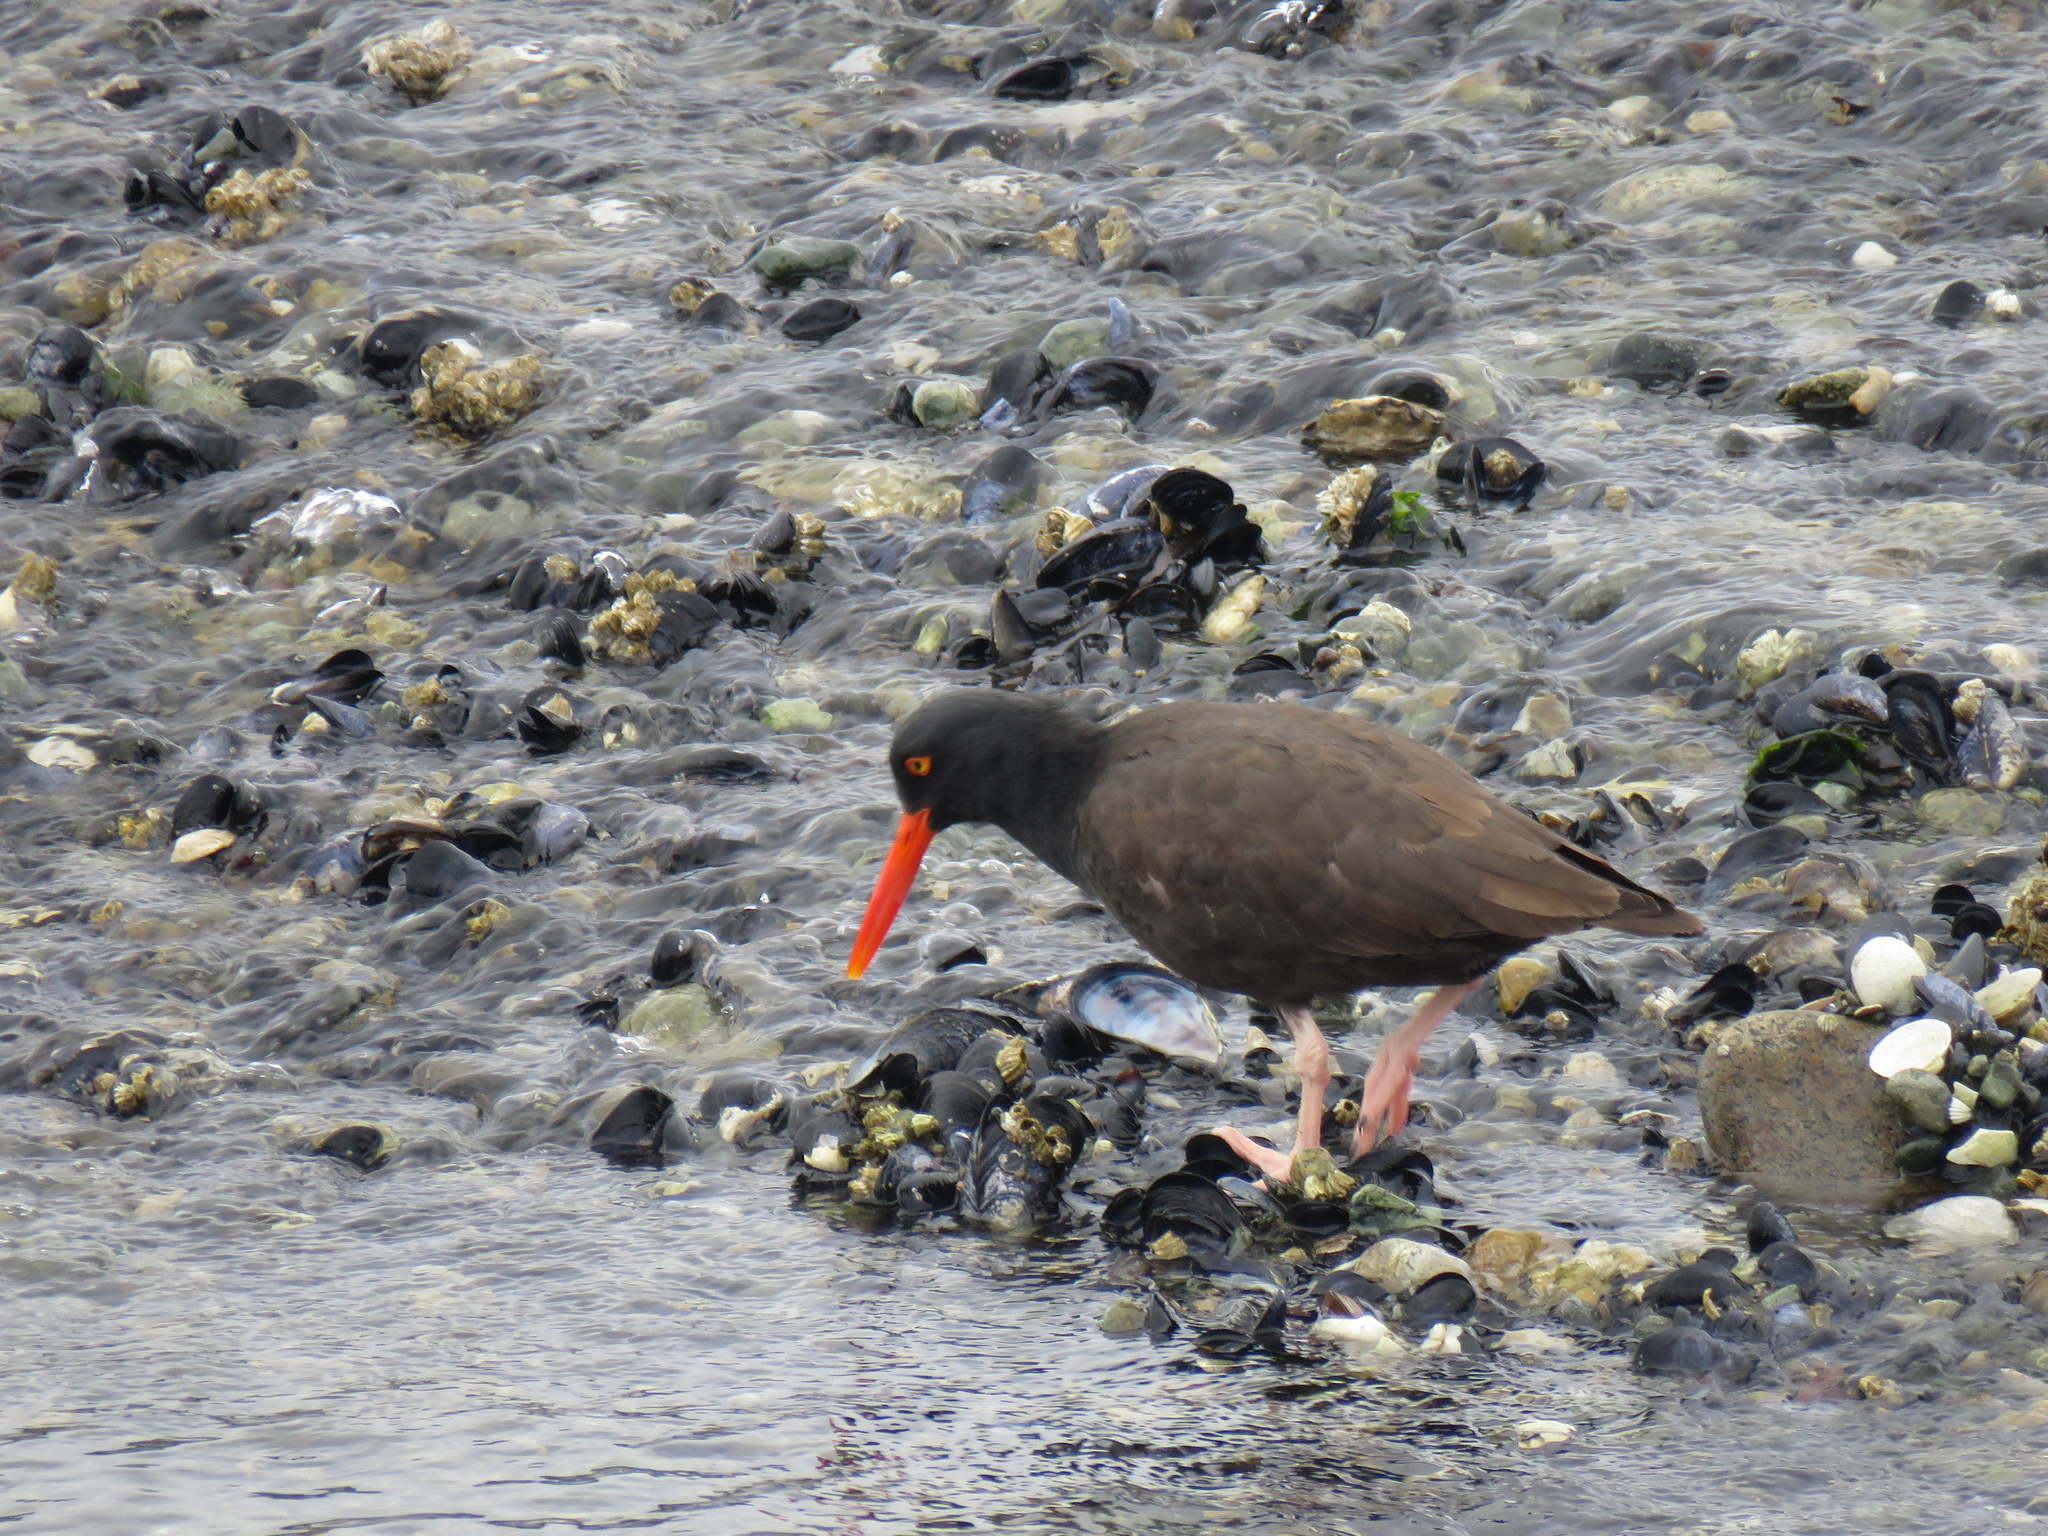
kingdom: Animalia
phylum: Chordata
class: Aves
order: Charadriiformes
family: Haematopodidae
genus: Haematopus
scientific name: Haematopus bachmani
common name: Black oystercatcher
